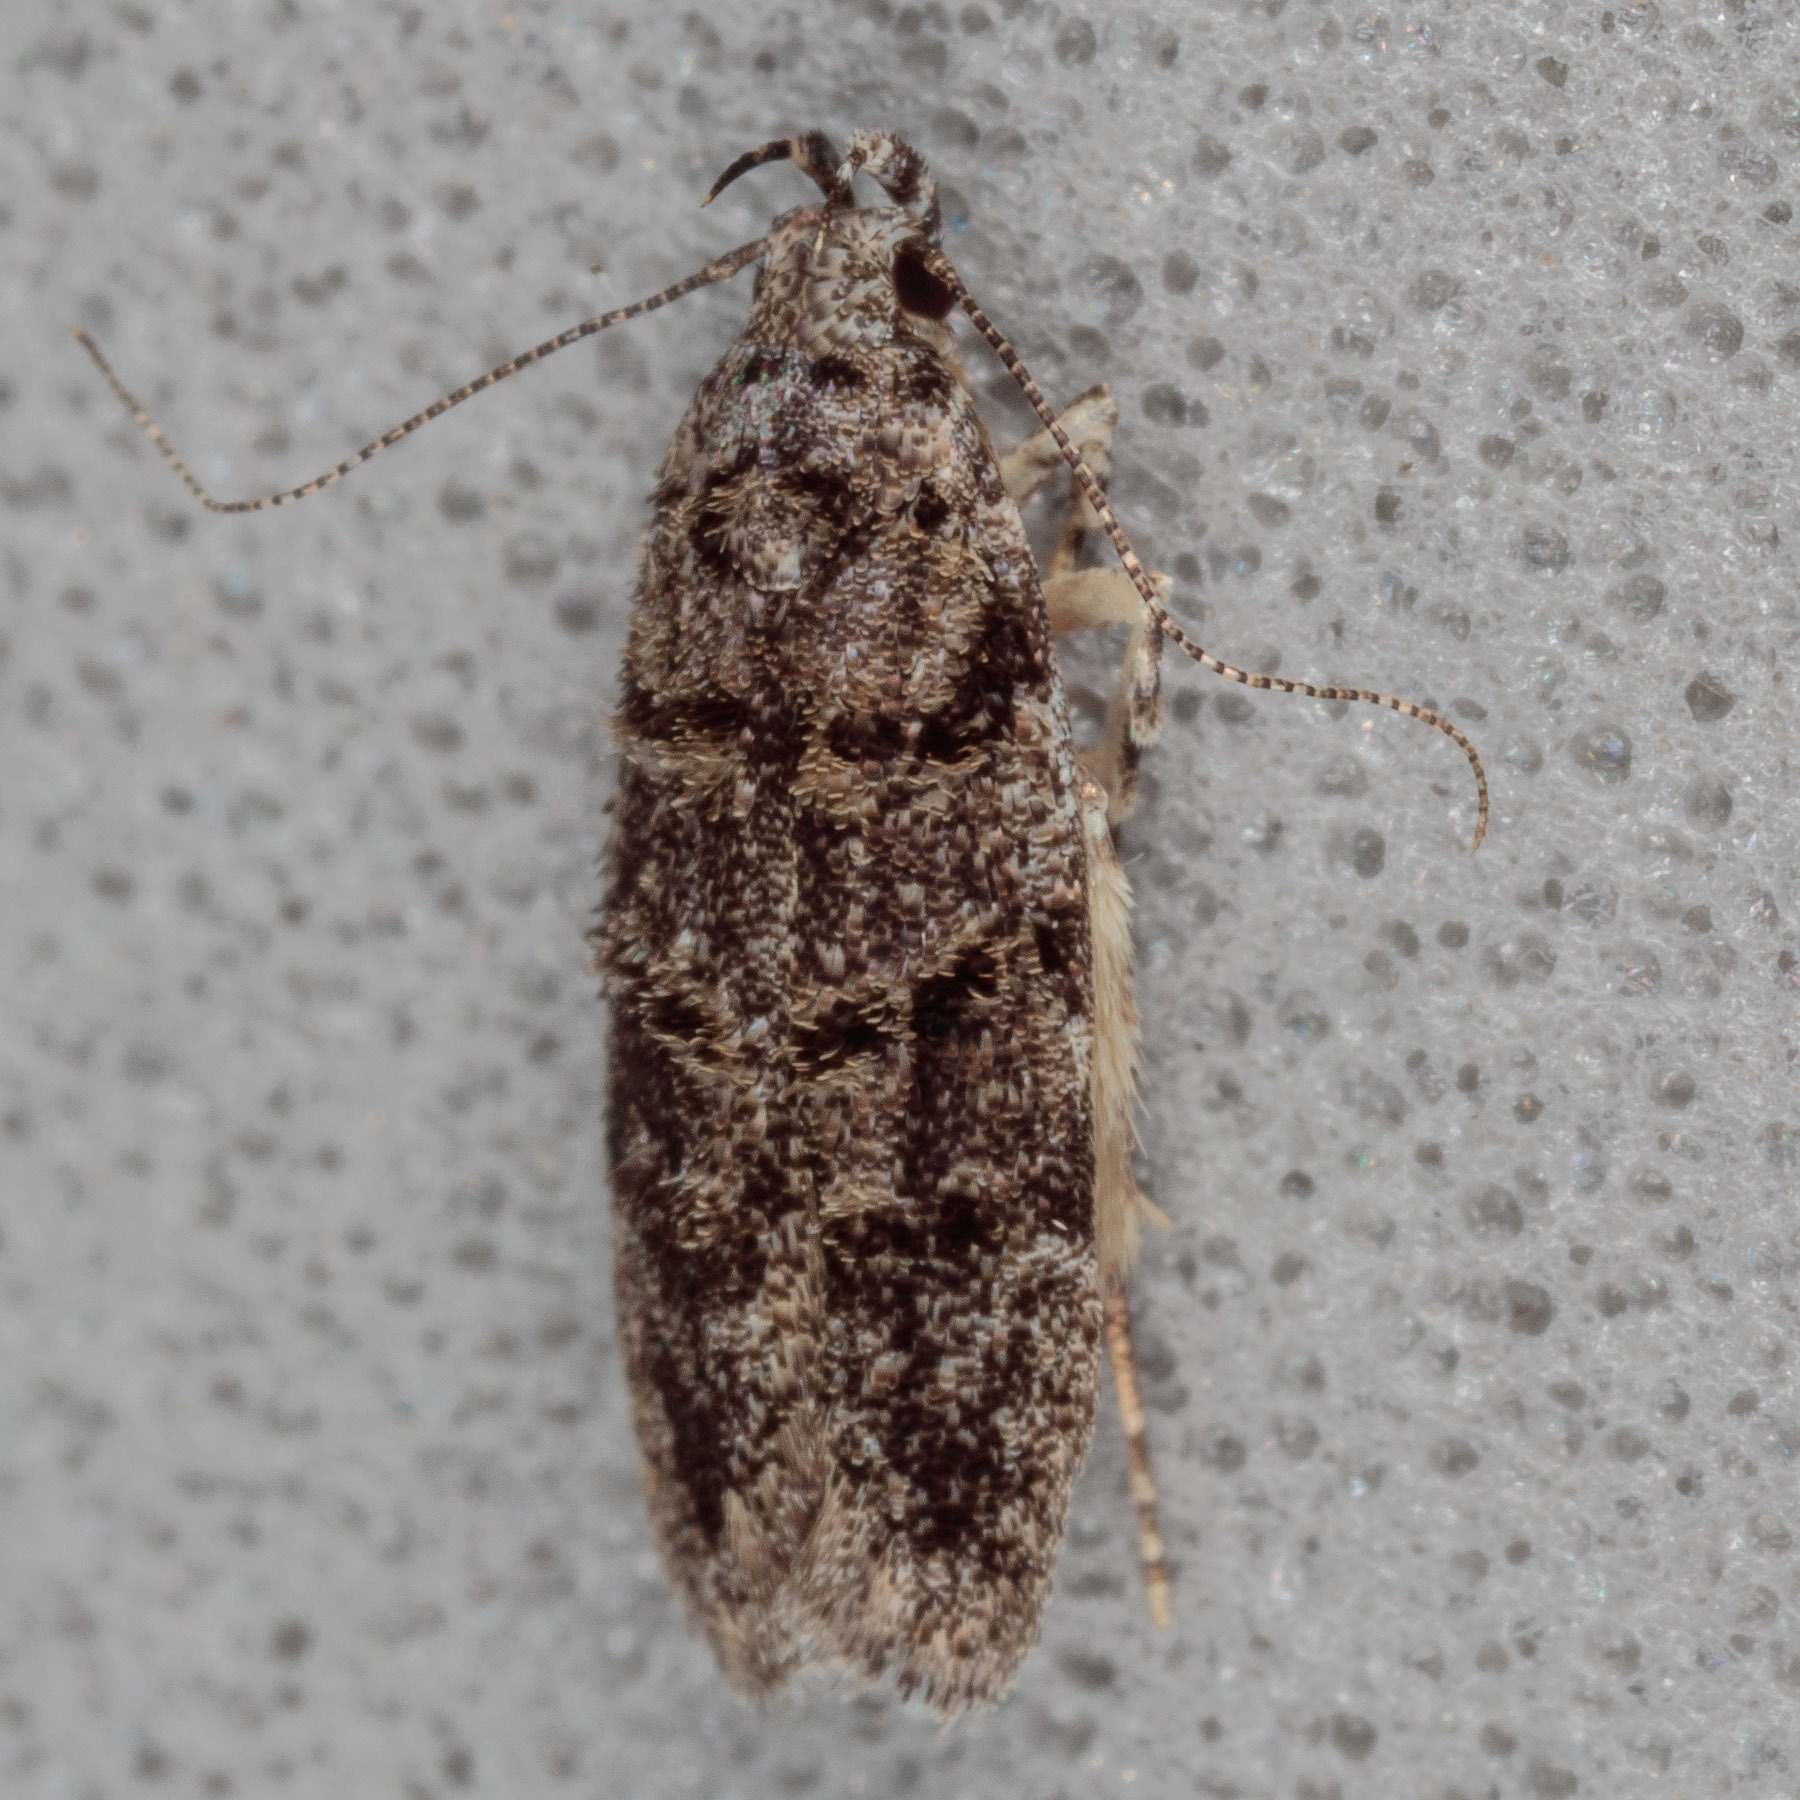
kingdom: Animalia
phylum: Arthropoda
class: Insecta
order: Lepidoptera
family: Gelechiidae
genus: Pubitelphusa
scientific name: Pubitelphusa latifasciella
